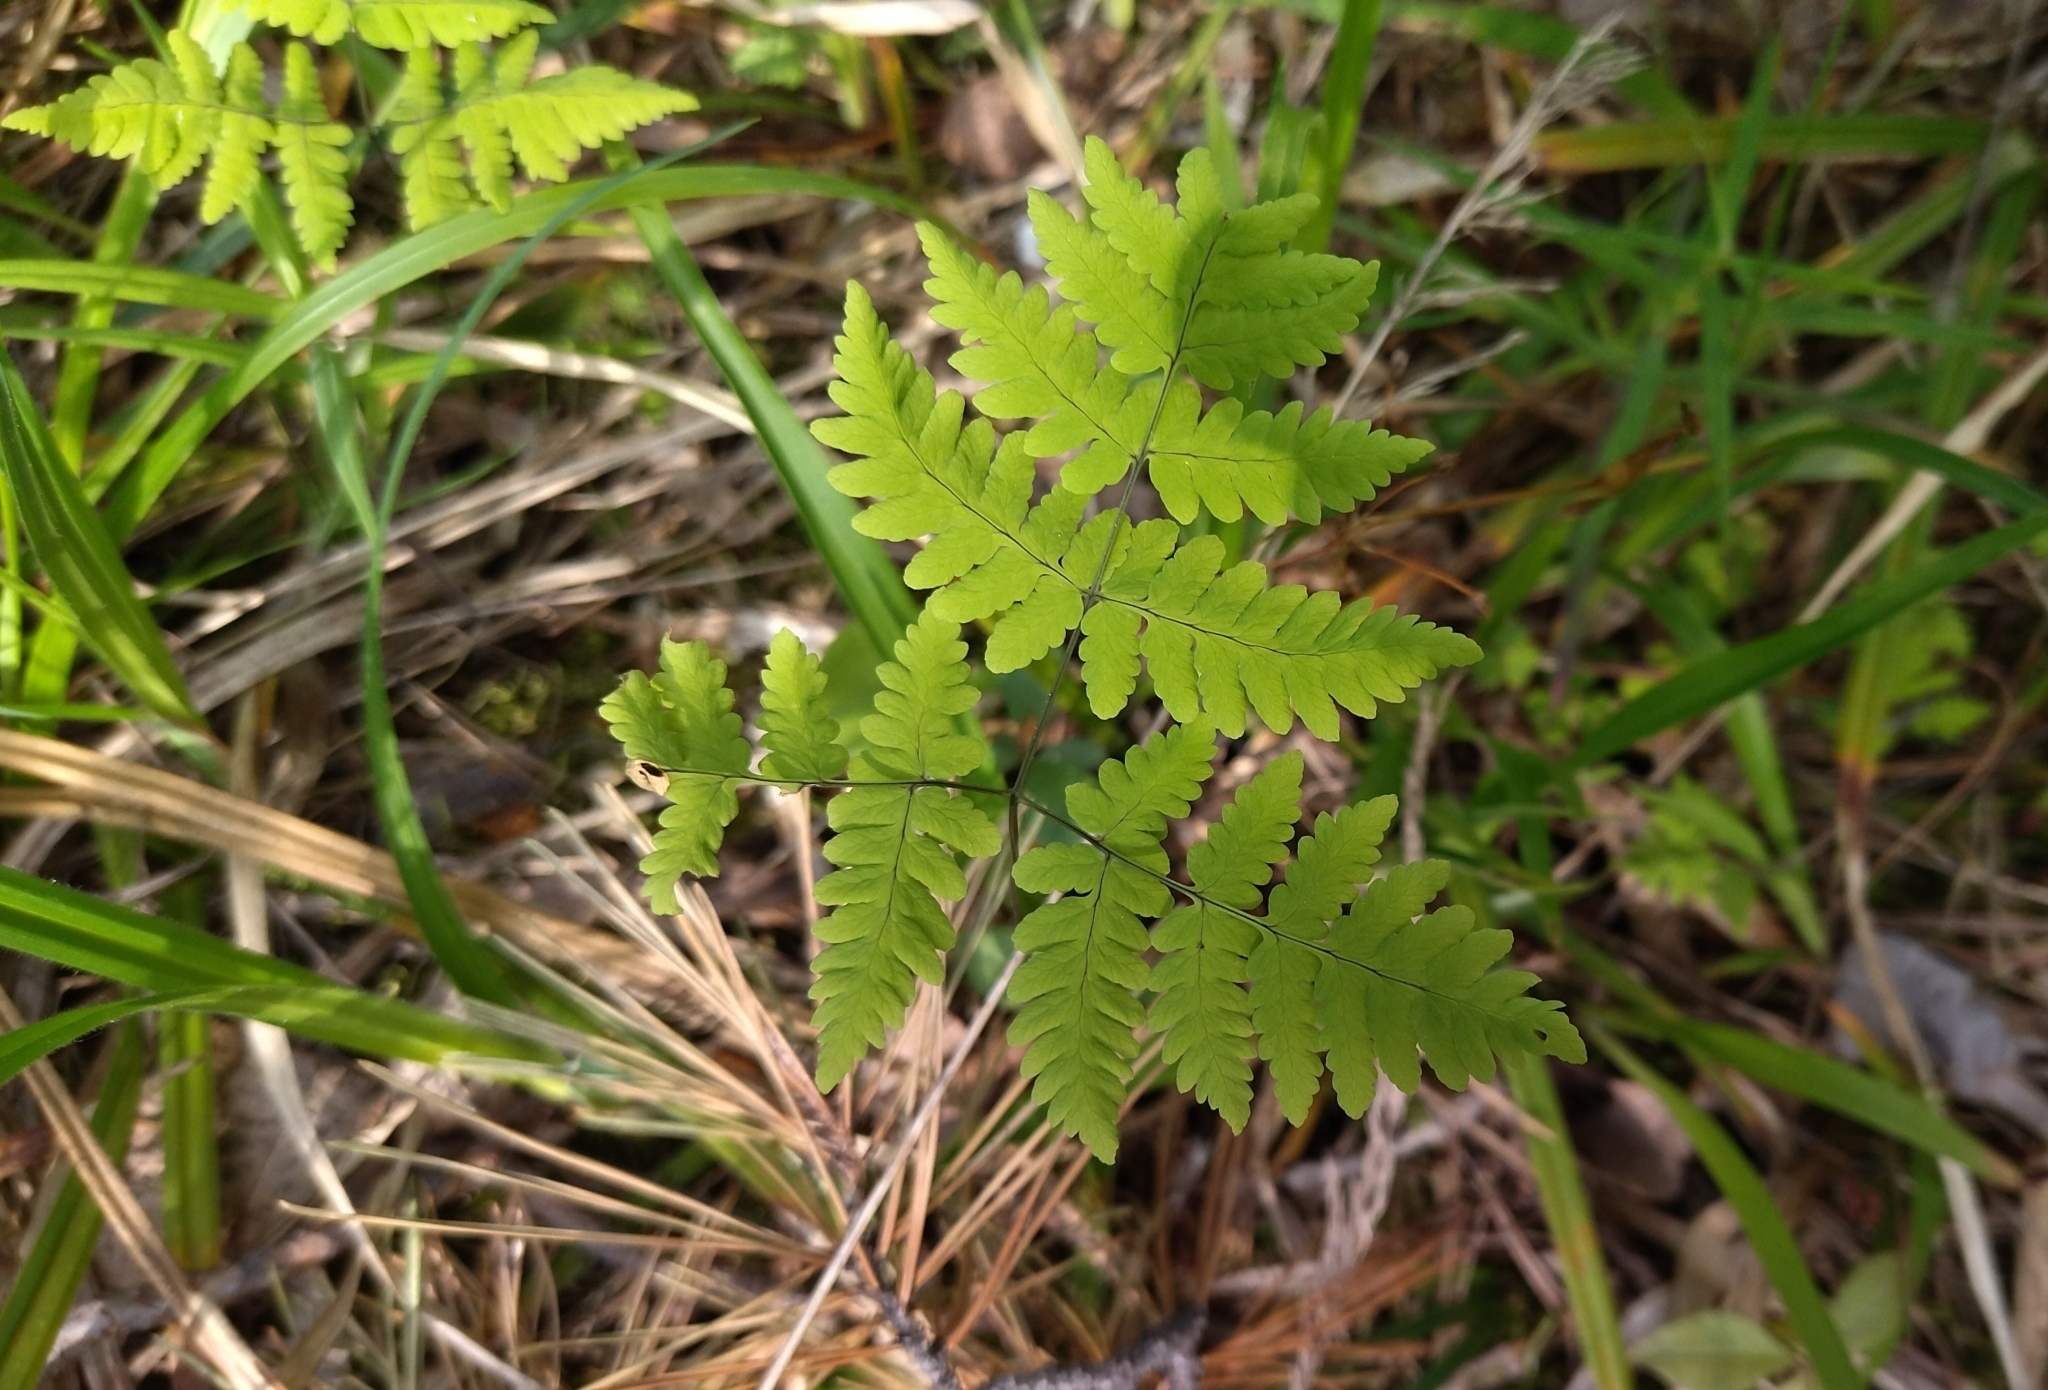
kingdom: Plantae
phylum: Tracheophyta
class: Polypodiopsida
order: Polypodiales
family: Cystopteridaceae
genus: Gymnocarpium
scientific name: Gymnocarpium dryopteris
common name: Oak fern
